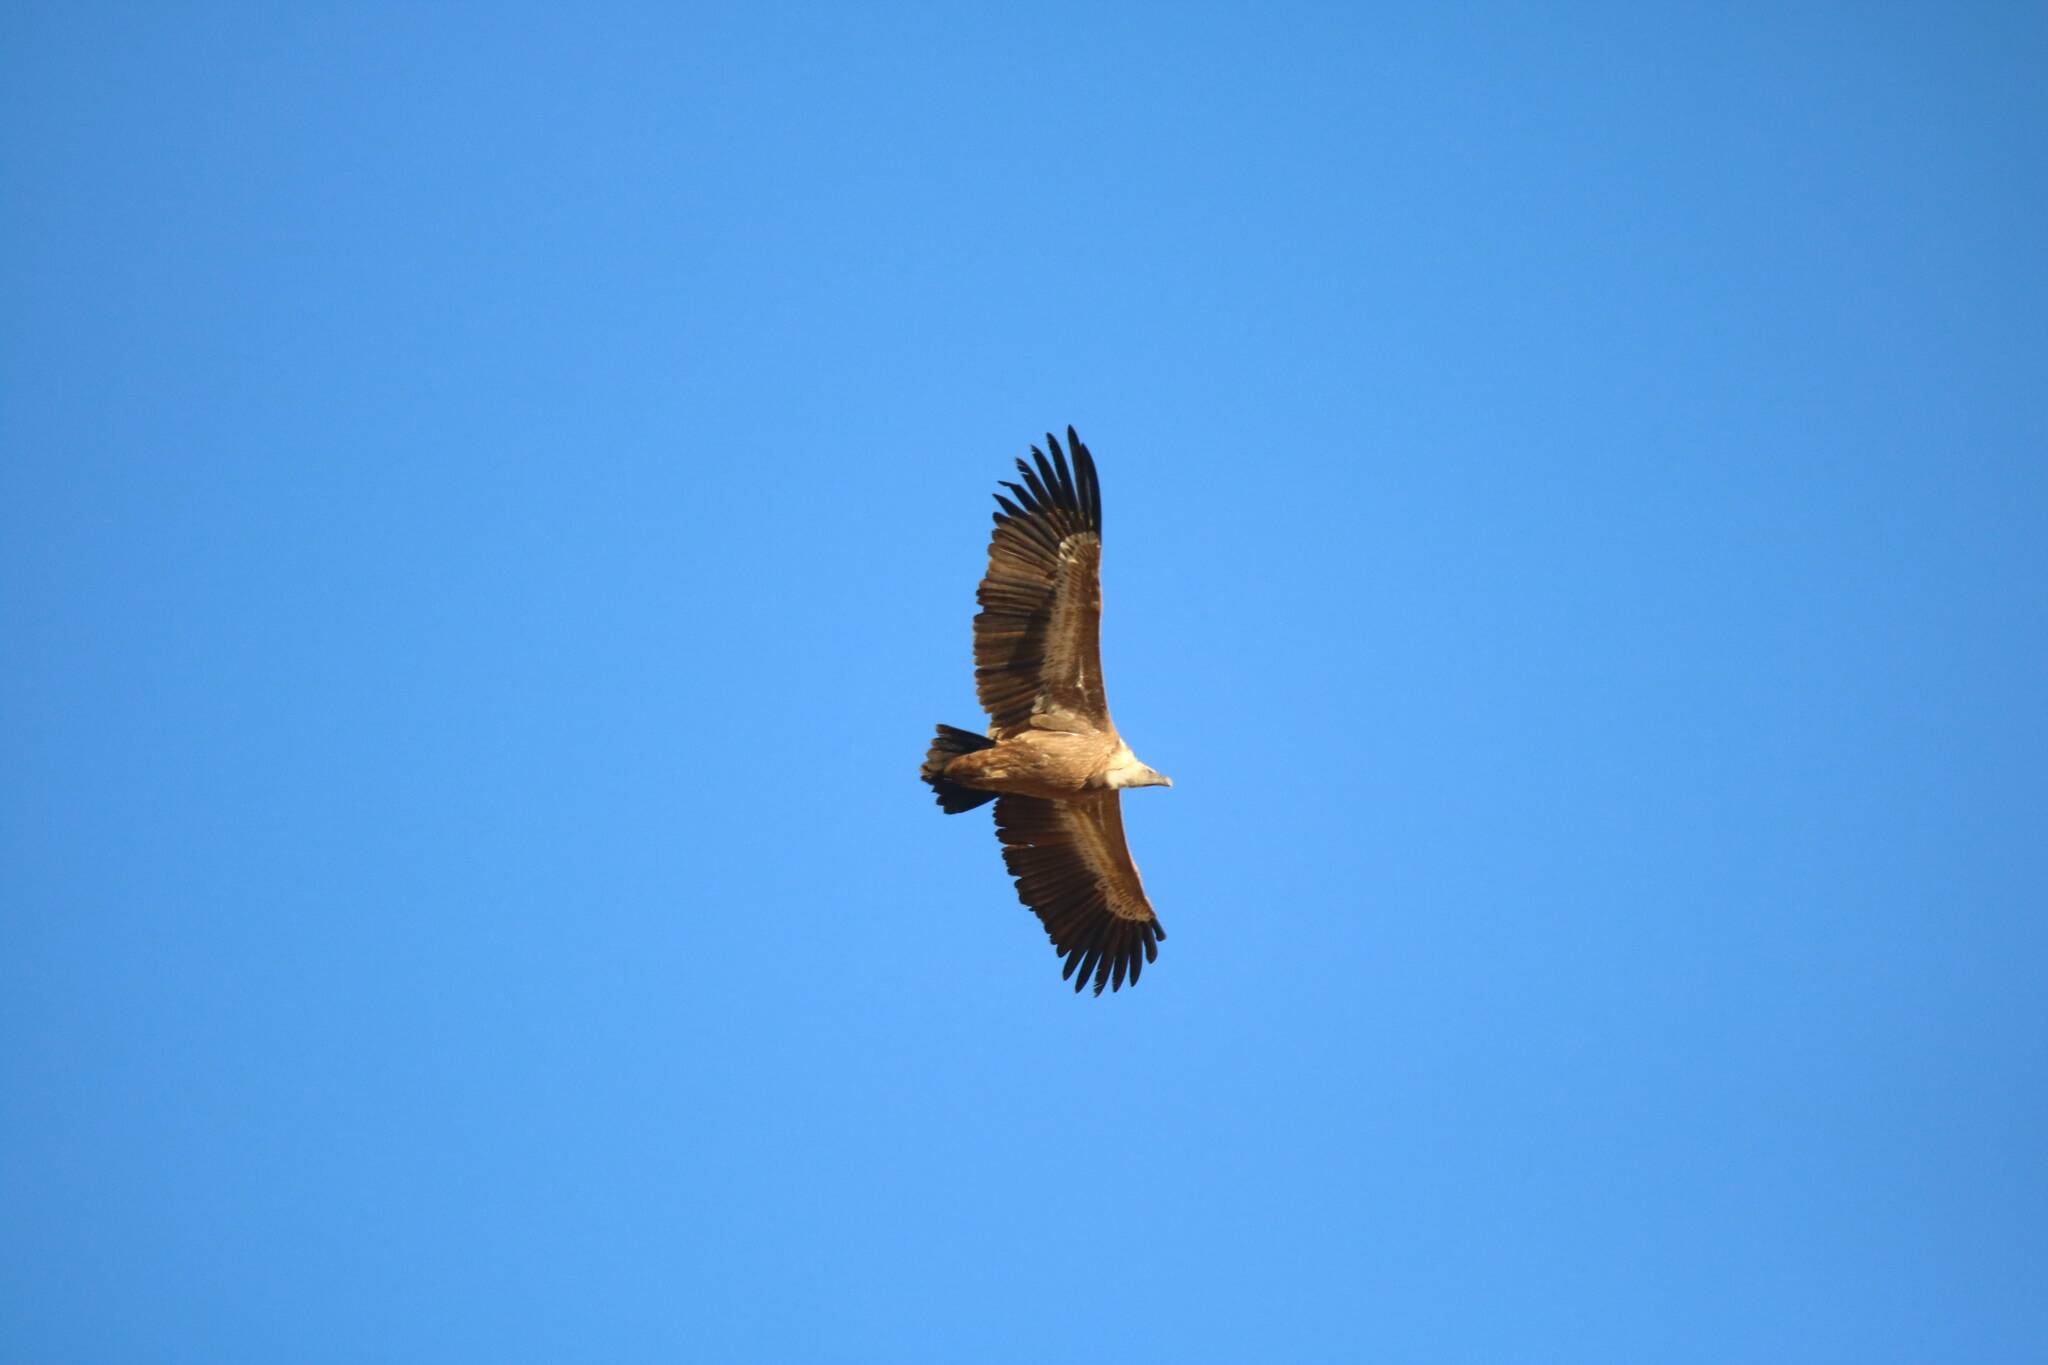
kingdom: Animalia
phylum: Chordata
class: Aves
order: Accipitriformes
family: Accipitridae
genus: Gyps
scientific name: Gyps fulvus
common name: Griffon vulture
